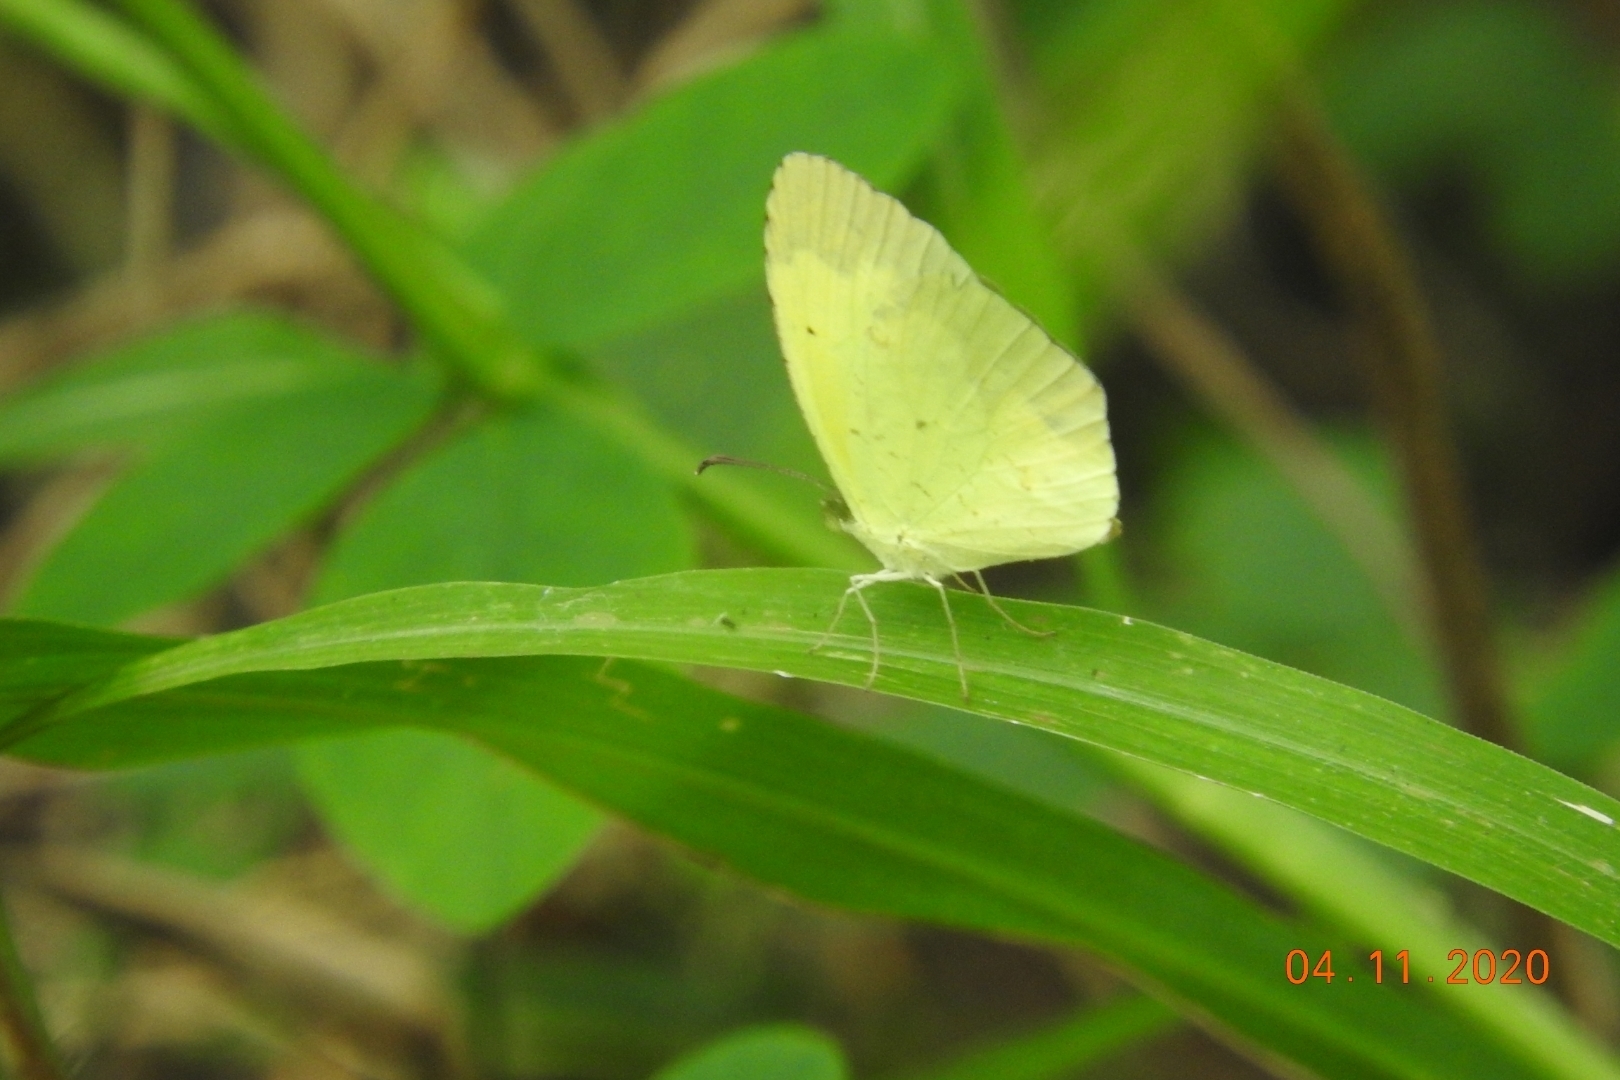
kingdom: Animalia
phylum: Arthropoda
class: Insecta
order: Lepidoptera
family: Pieridae
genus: Abaeis
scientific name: Abaeis boisduvaliana
